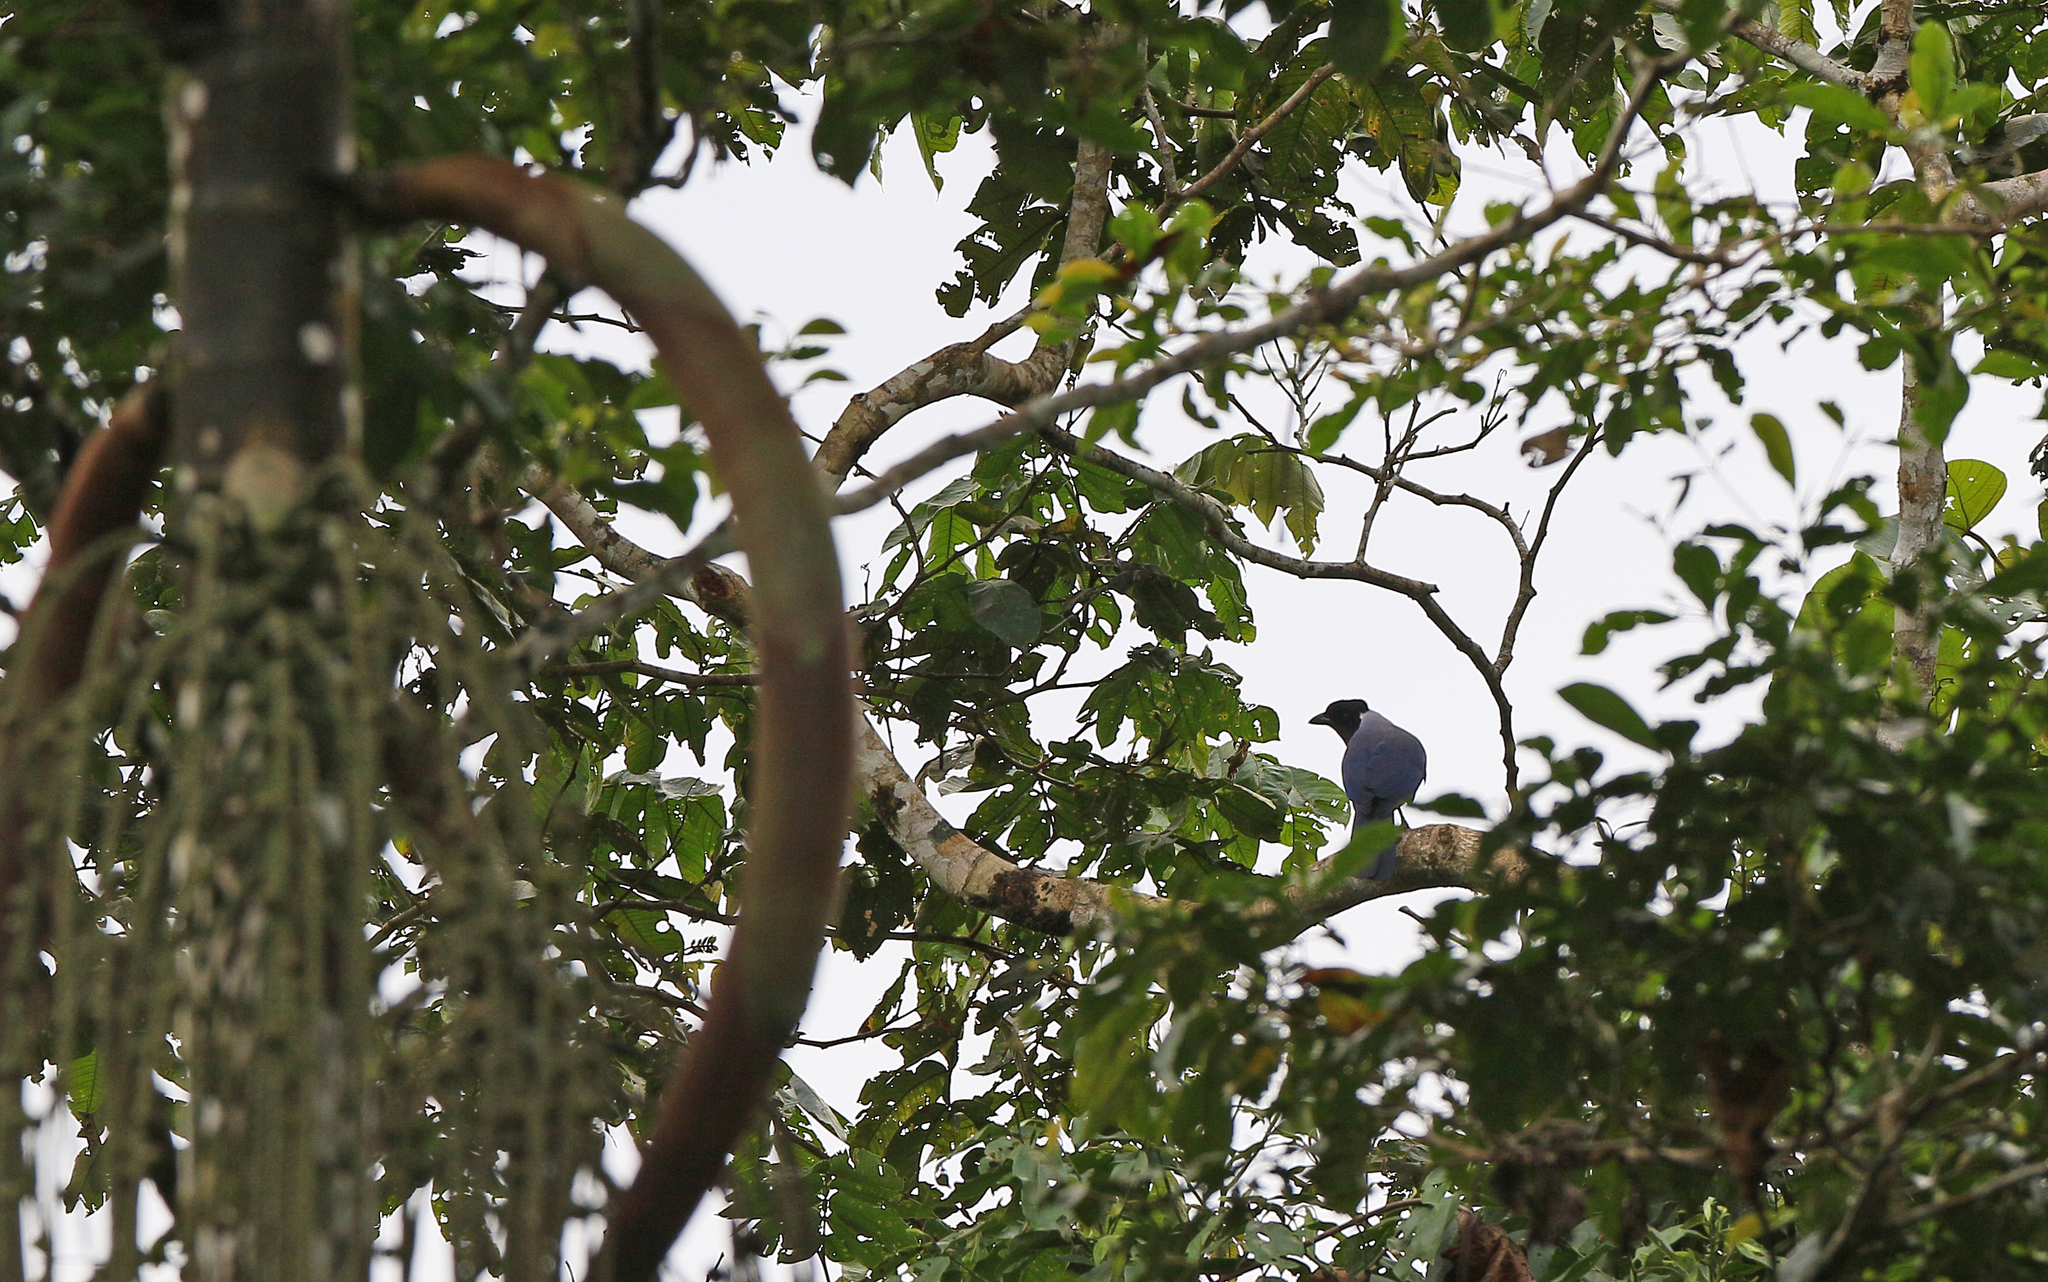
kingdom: Animalia
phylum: Chordata
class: Aves
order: Passeriformes
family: Corvidae
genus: Cyanocorax
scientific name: Cyanocorax violaceus
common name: Violaceous jay
